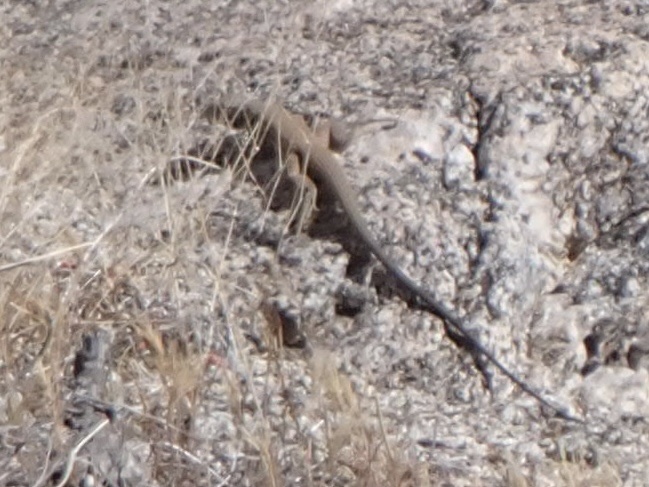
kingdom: Animalia
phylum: Chordata
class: Squamata
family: Teiidae
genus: Aspidoscelis
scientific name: Aspidoscelis tigris
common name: Tiger whiptail
